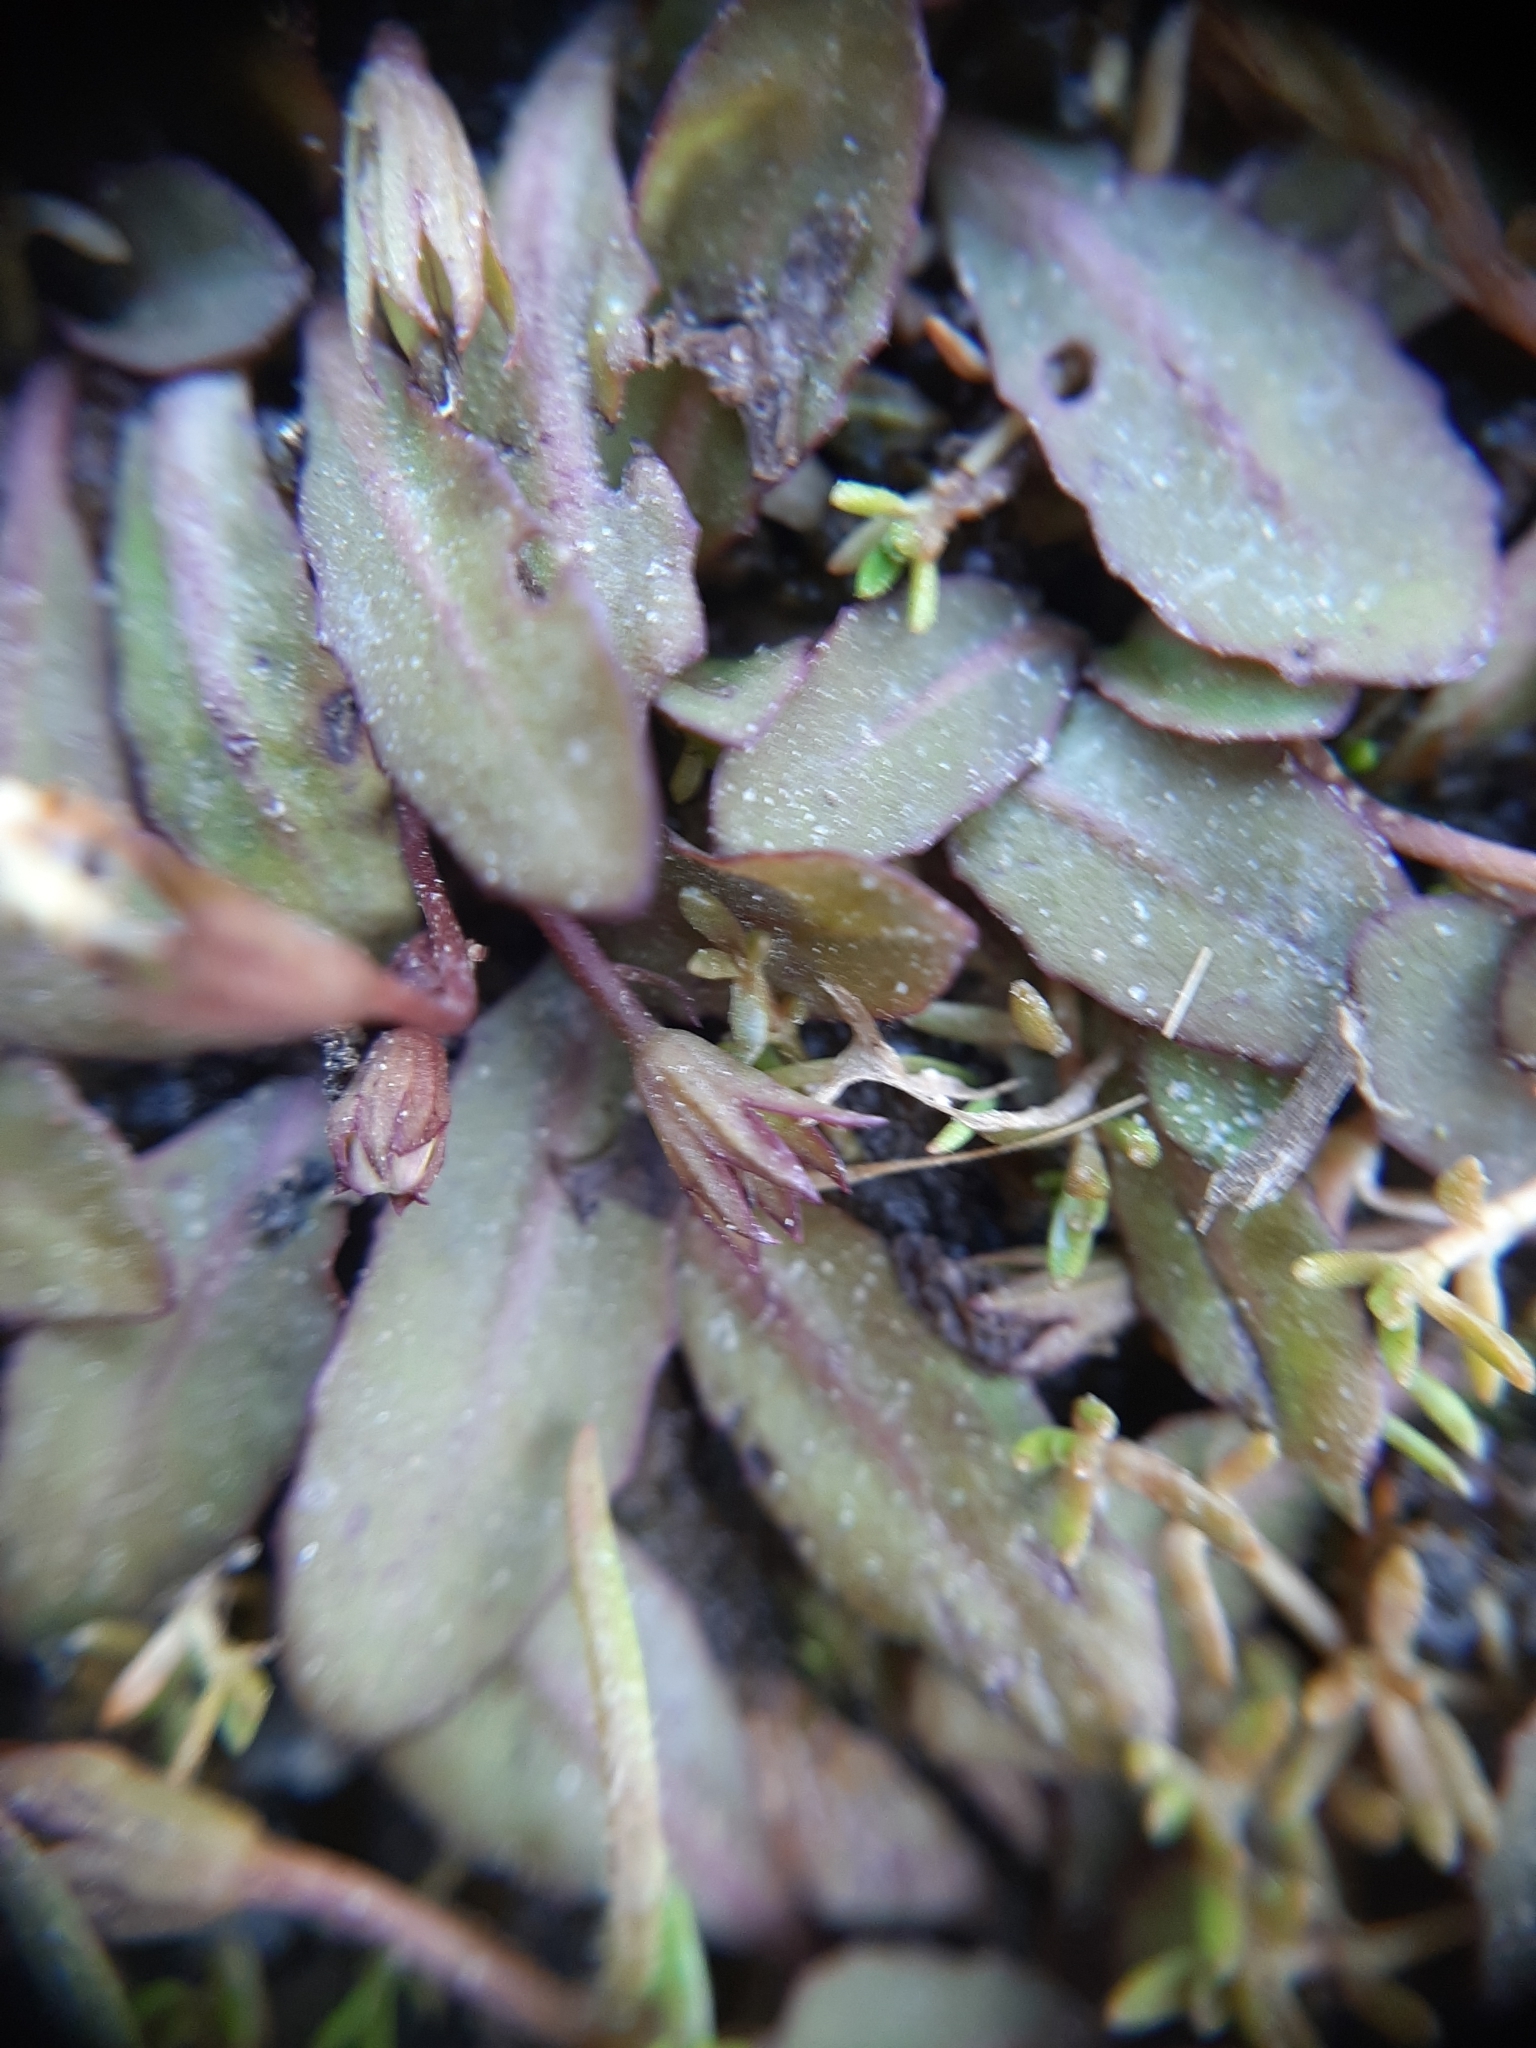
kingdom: Plantae
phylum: Tracheophyta
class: Magnoliopsida
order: Lamiales
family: Mazaceae
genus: Mazus
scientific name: Mazus novaezeelandiae
